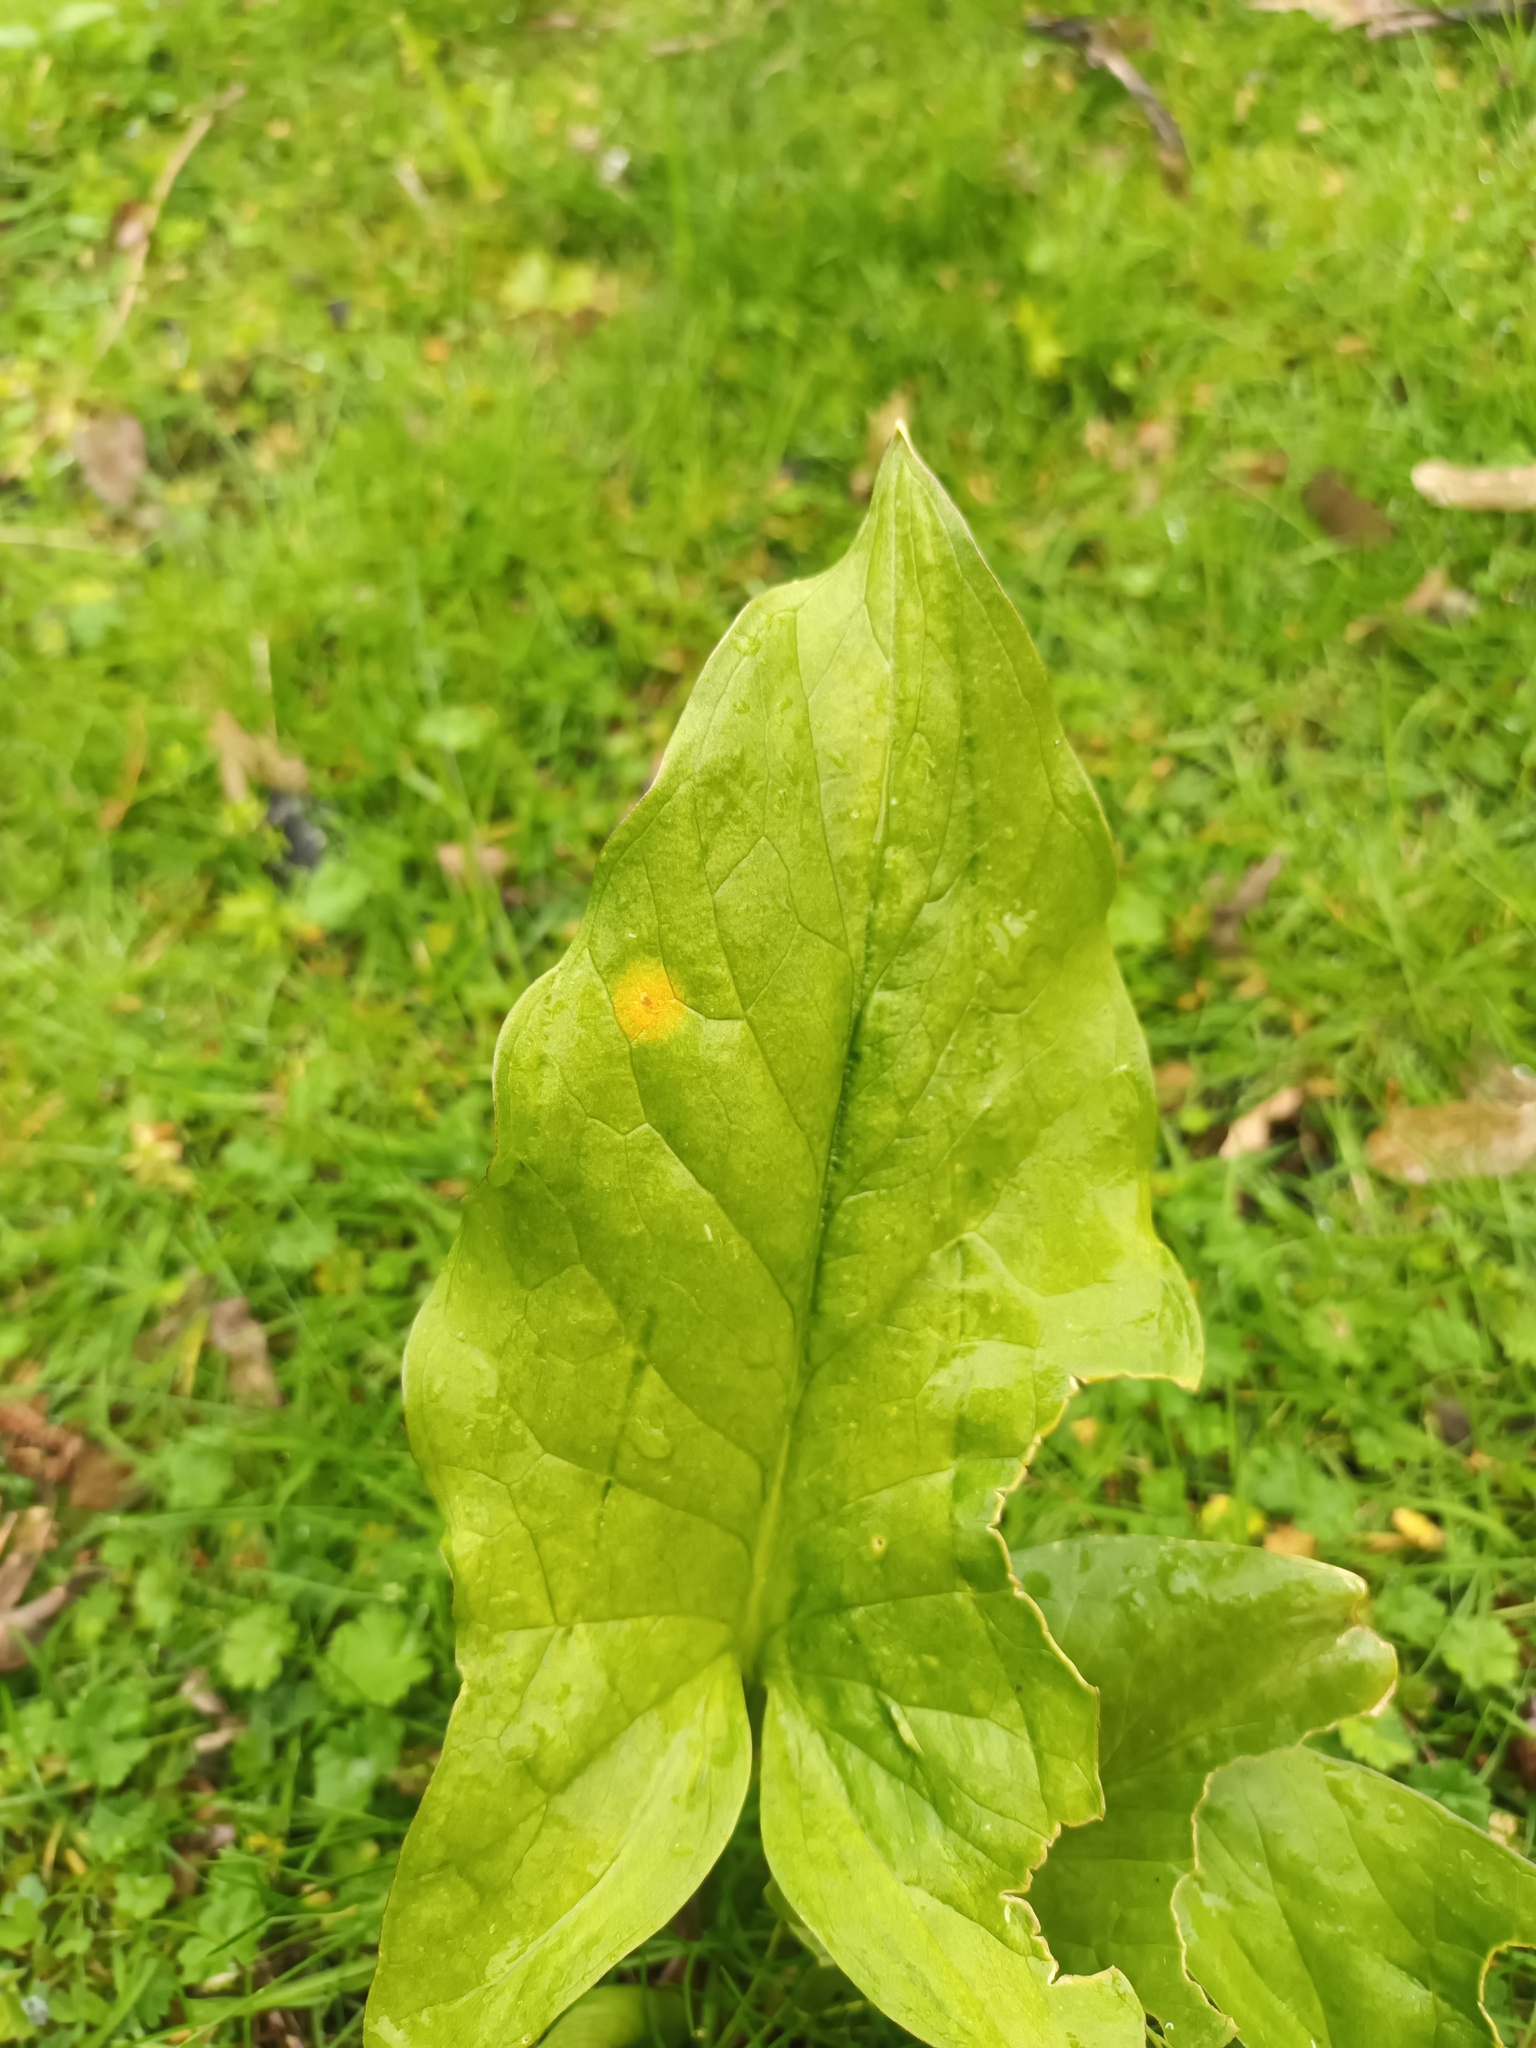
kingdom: Fungi
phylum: Basidiomycota
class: Pucciniomycetes
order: Pucciniales
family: Pucciniaceae
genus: Puccinia
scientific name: Puccinia sessilis
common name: Arum rust
